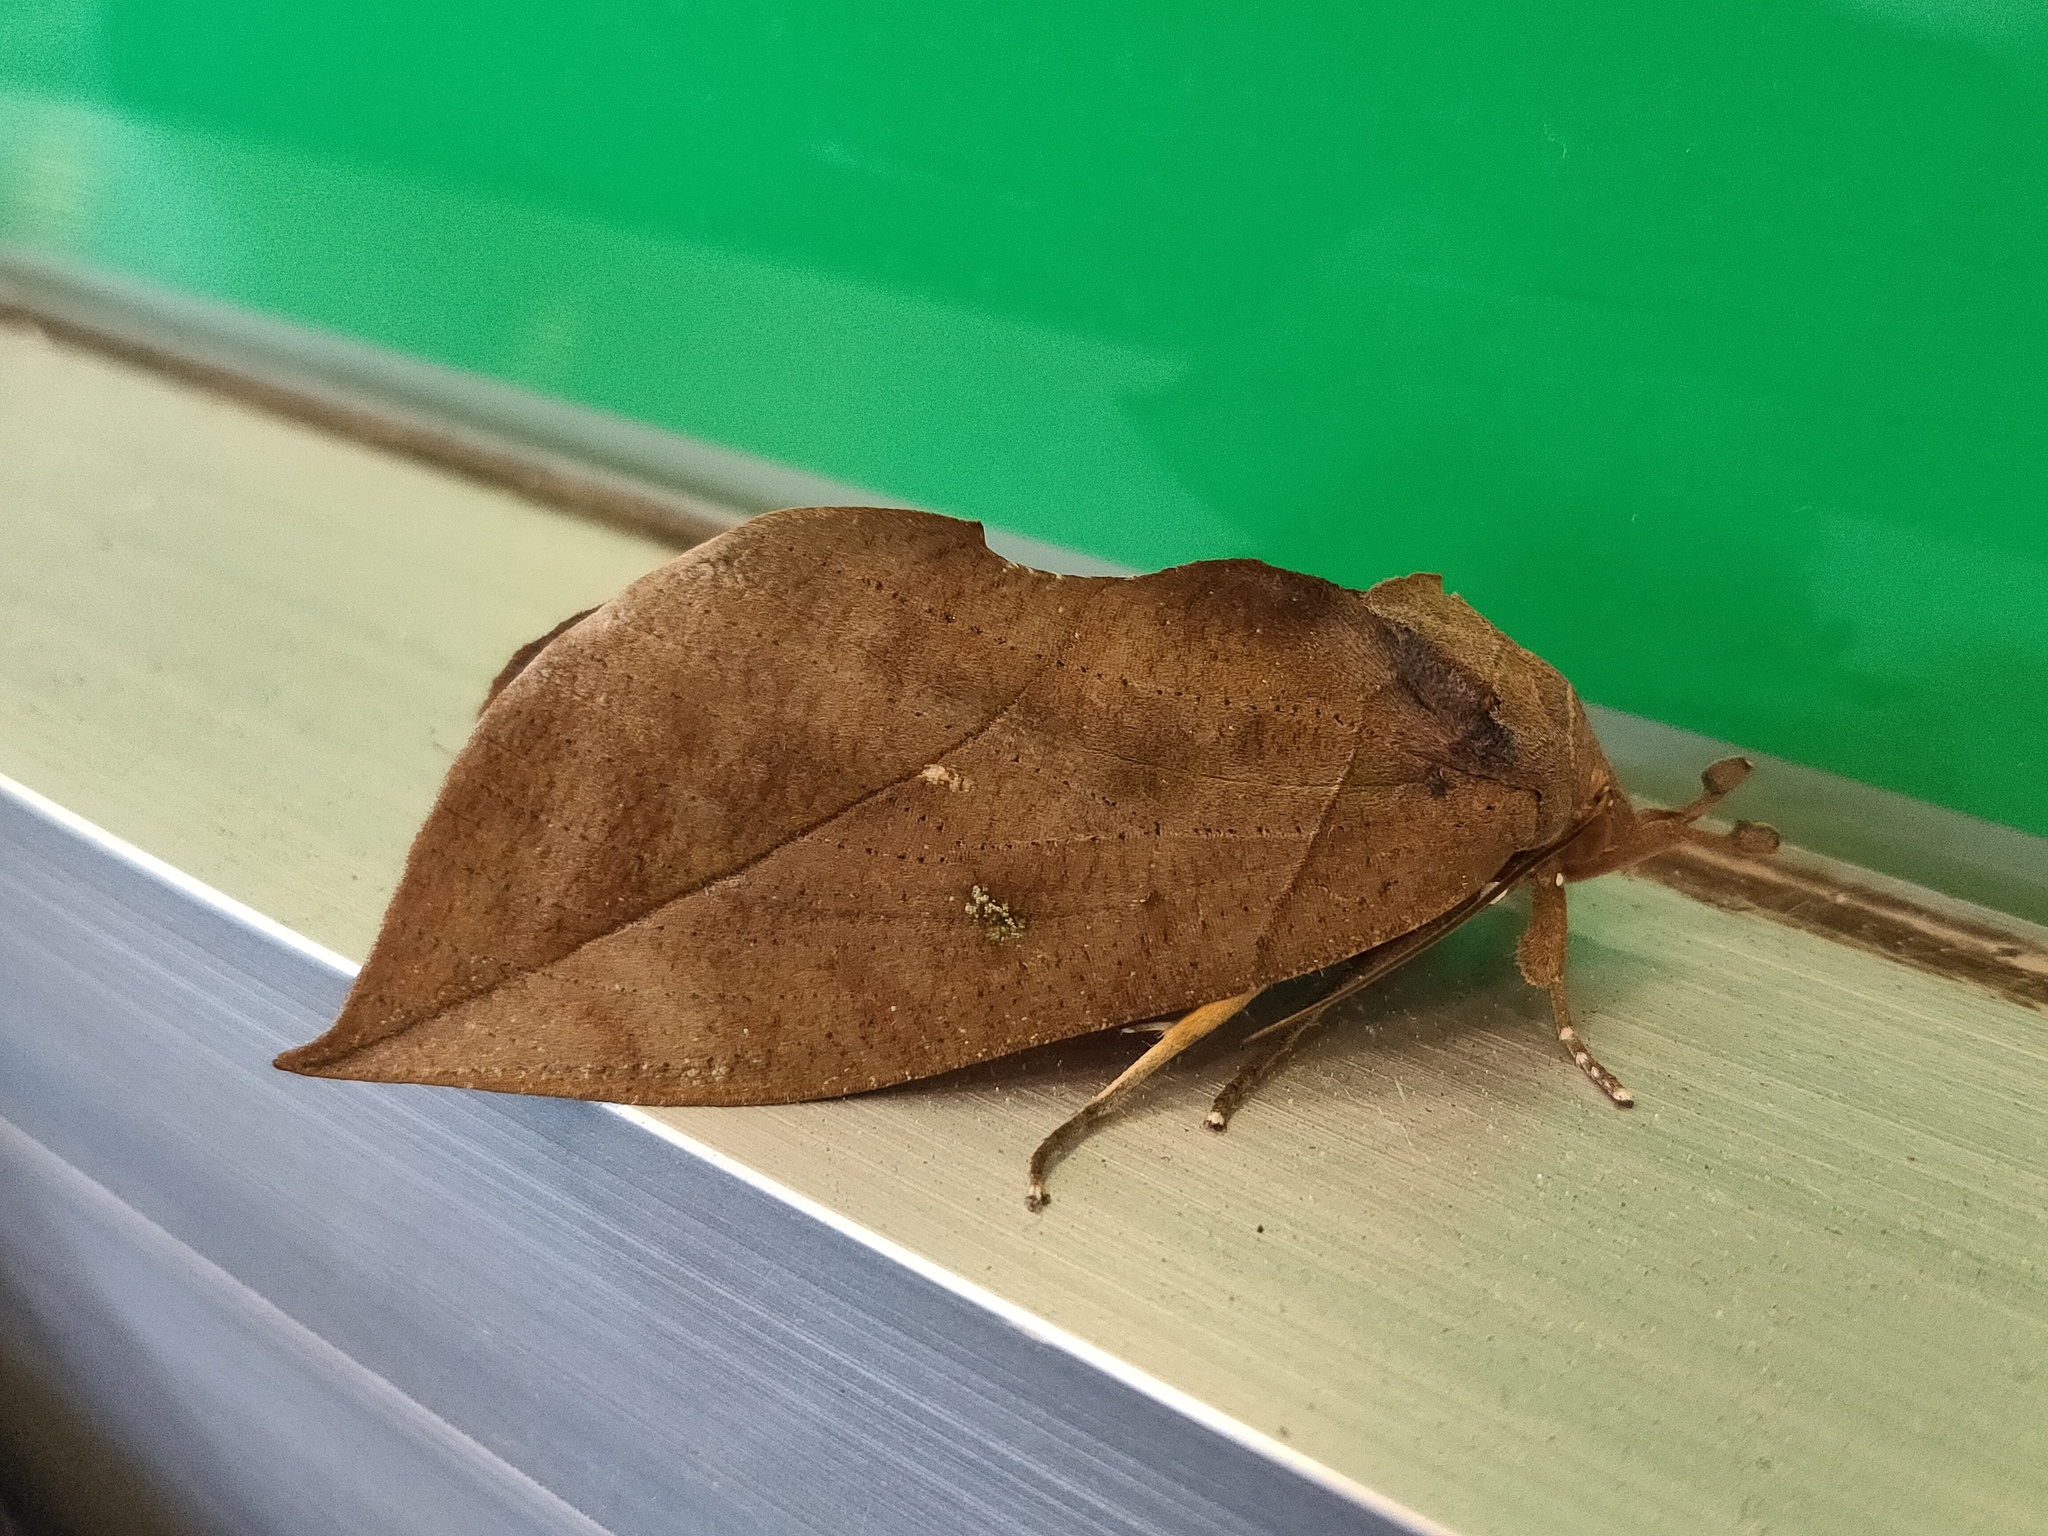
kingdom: Animalia
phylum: Arthropoda
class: Insecta
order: Lepidoptera
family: Erebidae
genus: Eudocima
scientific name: Eudocima tyrannus
